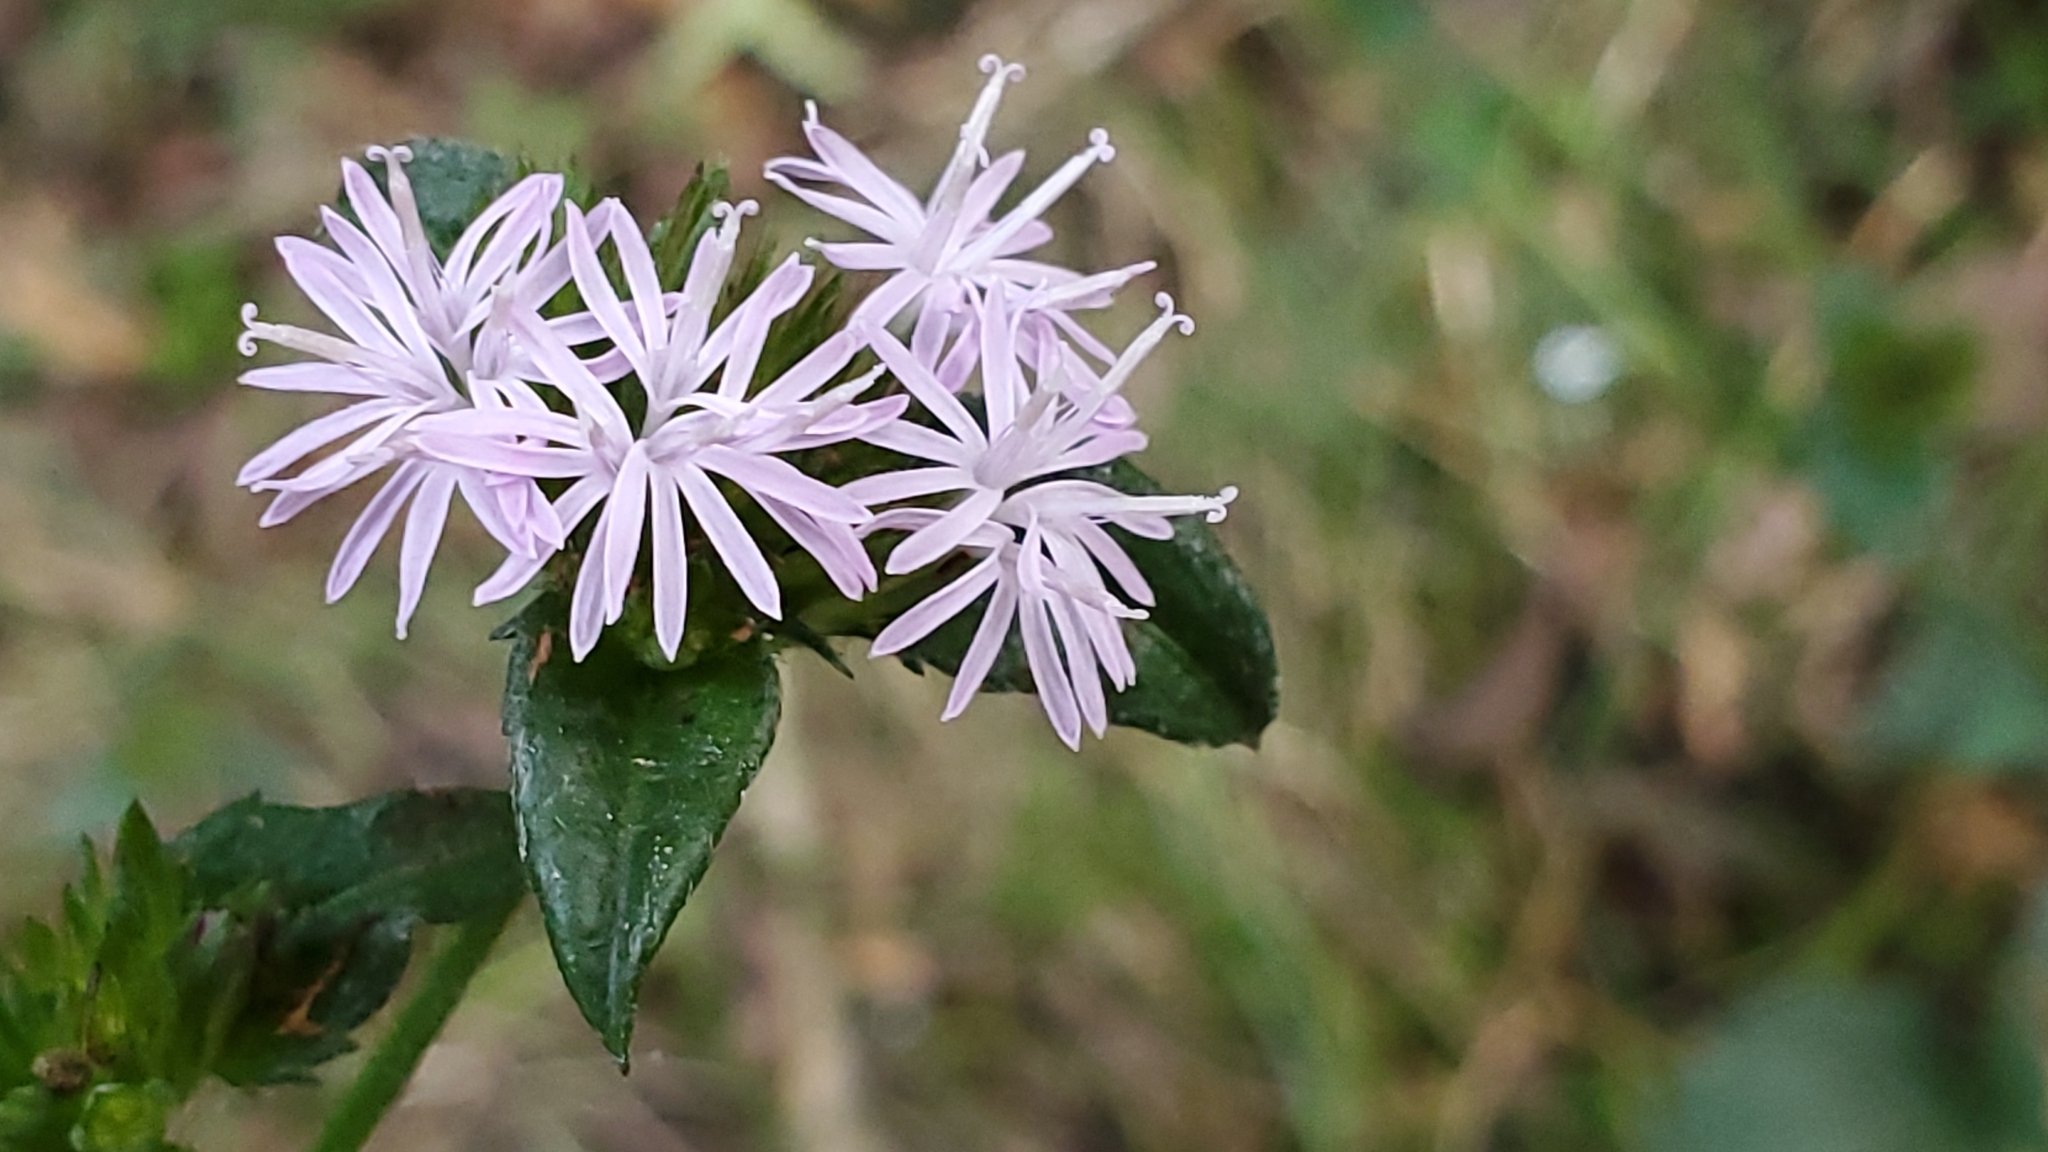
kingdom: Plantae
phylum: Tracheophyta
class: Magnoliopsida
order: Asterales
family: Asteraceae
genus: Elephantopus
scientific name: Elephantopus tomentosus
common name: Tobacco-weed
